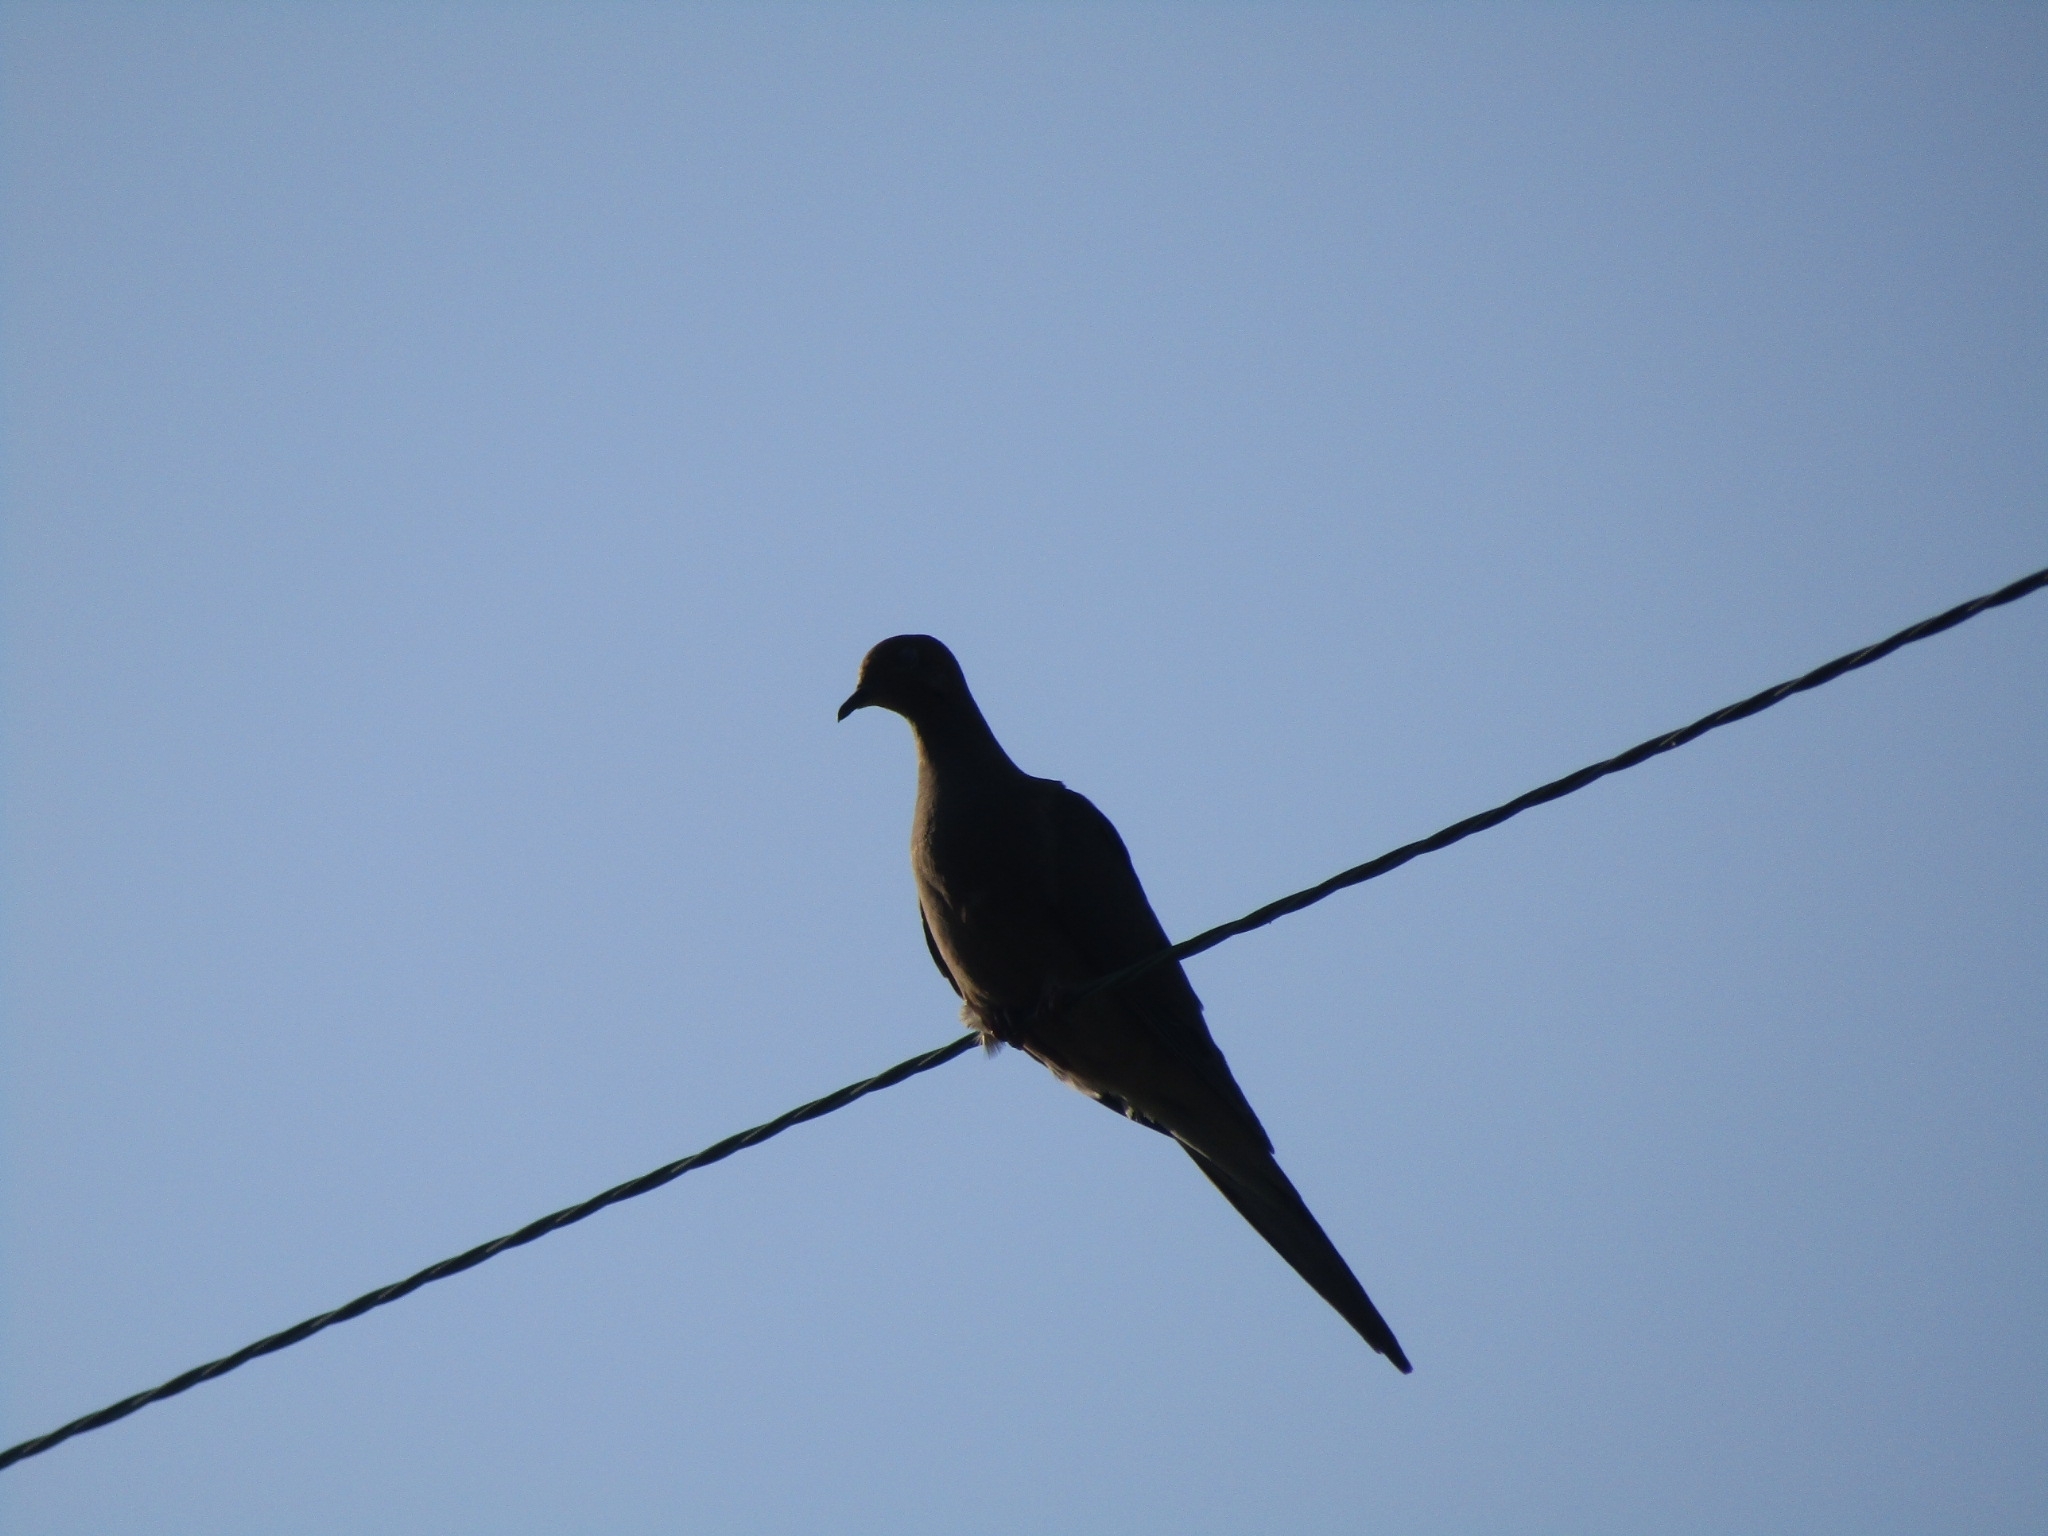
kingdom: Animalia
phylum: Chordata
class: Aves
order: Columbiformes
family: Columbidae
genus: Zenaida
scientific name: Zenaida macroura
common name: Mourning dove
